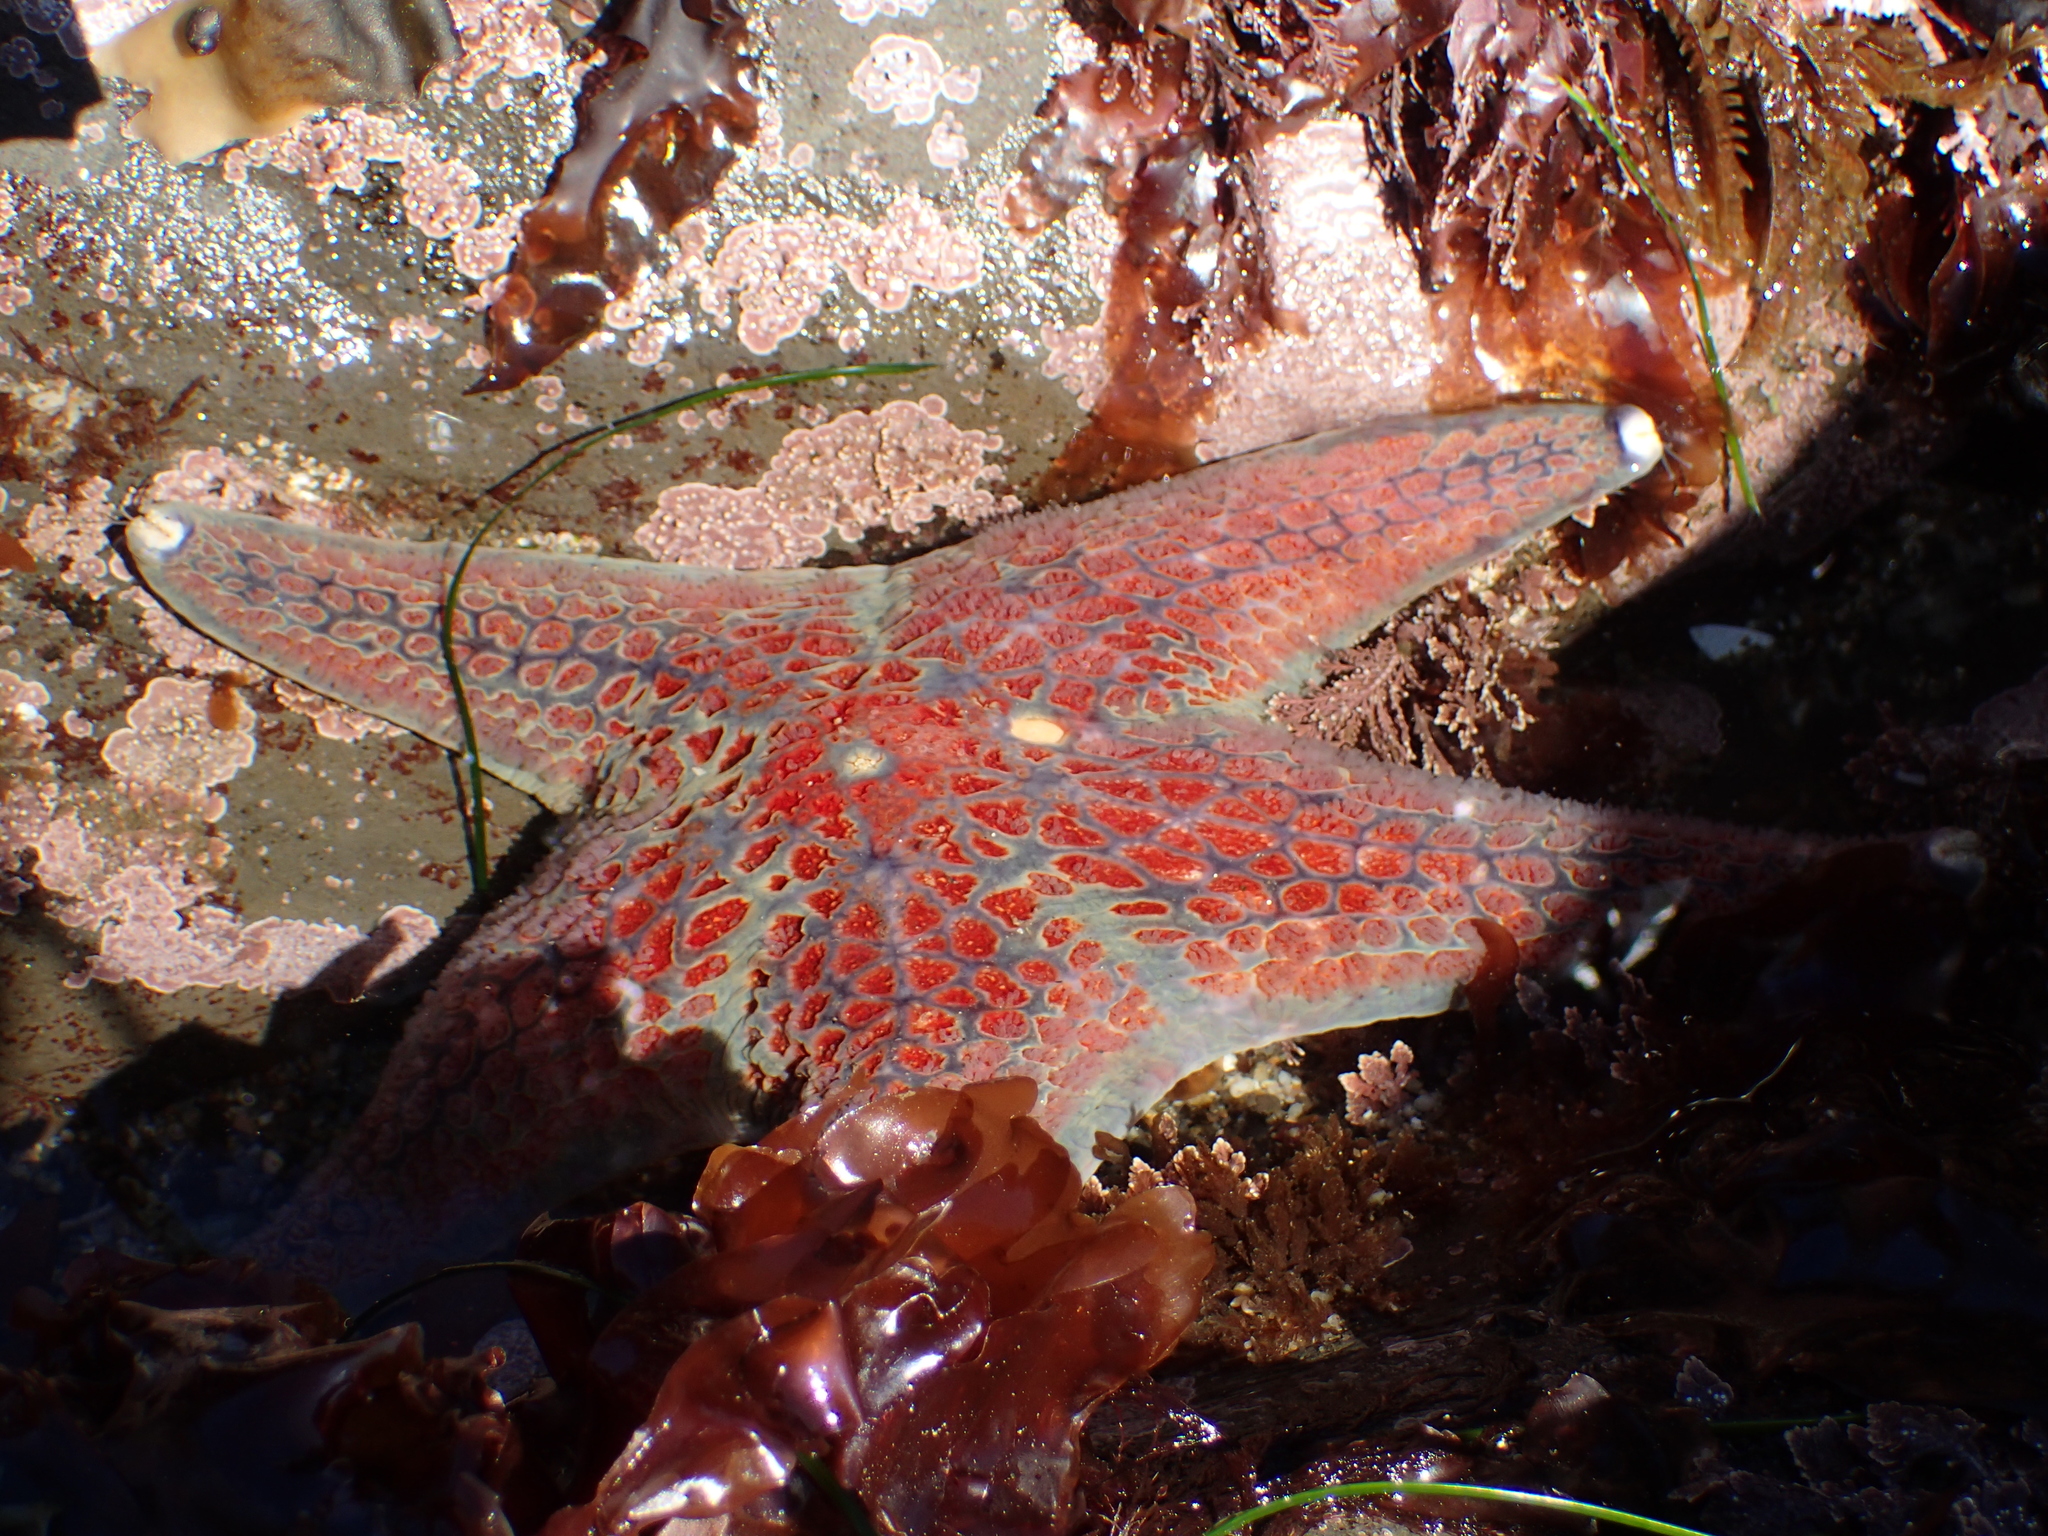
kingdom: Animalia
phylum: Echinodermata
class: Asteroidea
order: Valvatida
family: Asteropseidae
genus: Dermasterias
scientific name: Dermasterias imbricata
